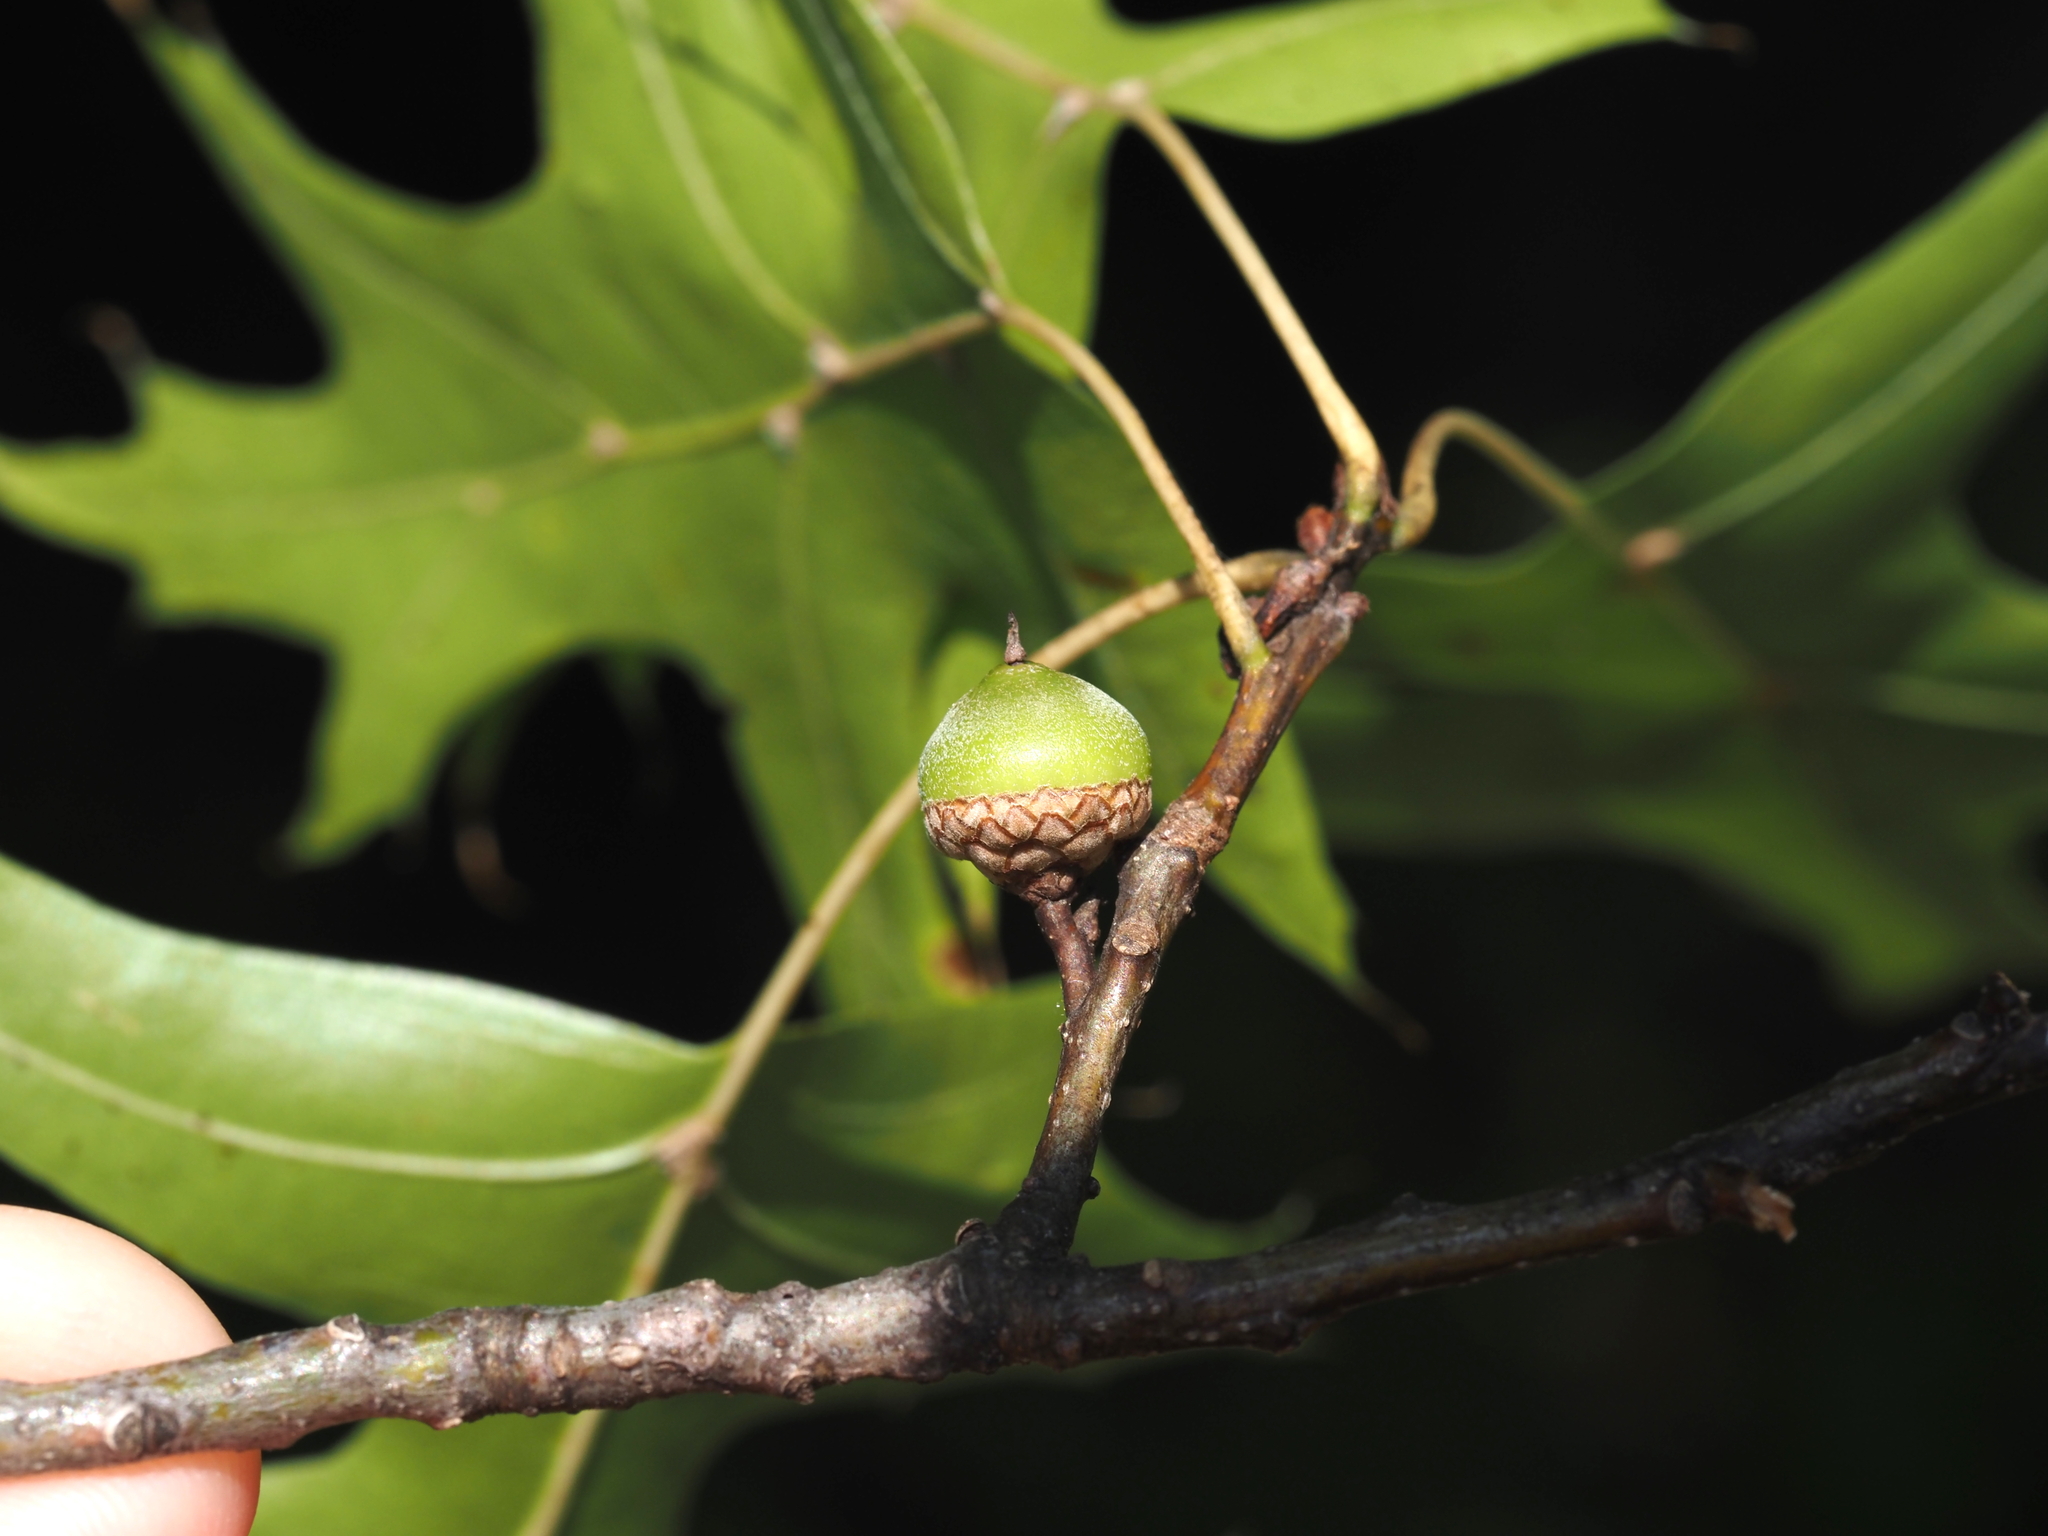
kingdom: Plantae
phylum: Tracheophyta
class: Magnoliopsida
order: Fagales
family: Fagaceae
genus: Quercus
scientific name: Quercus palustris
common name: Pin oak
